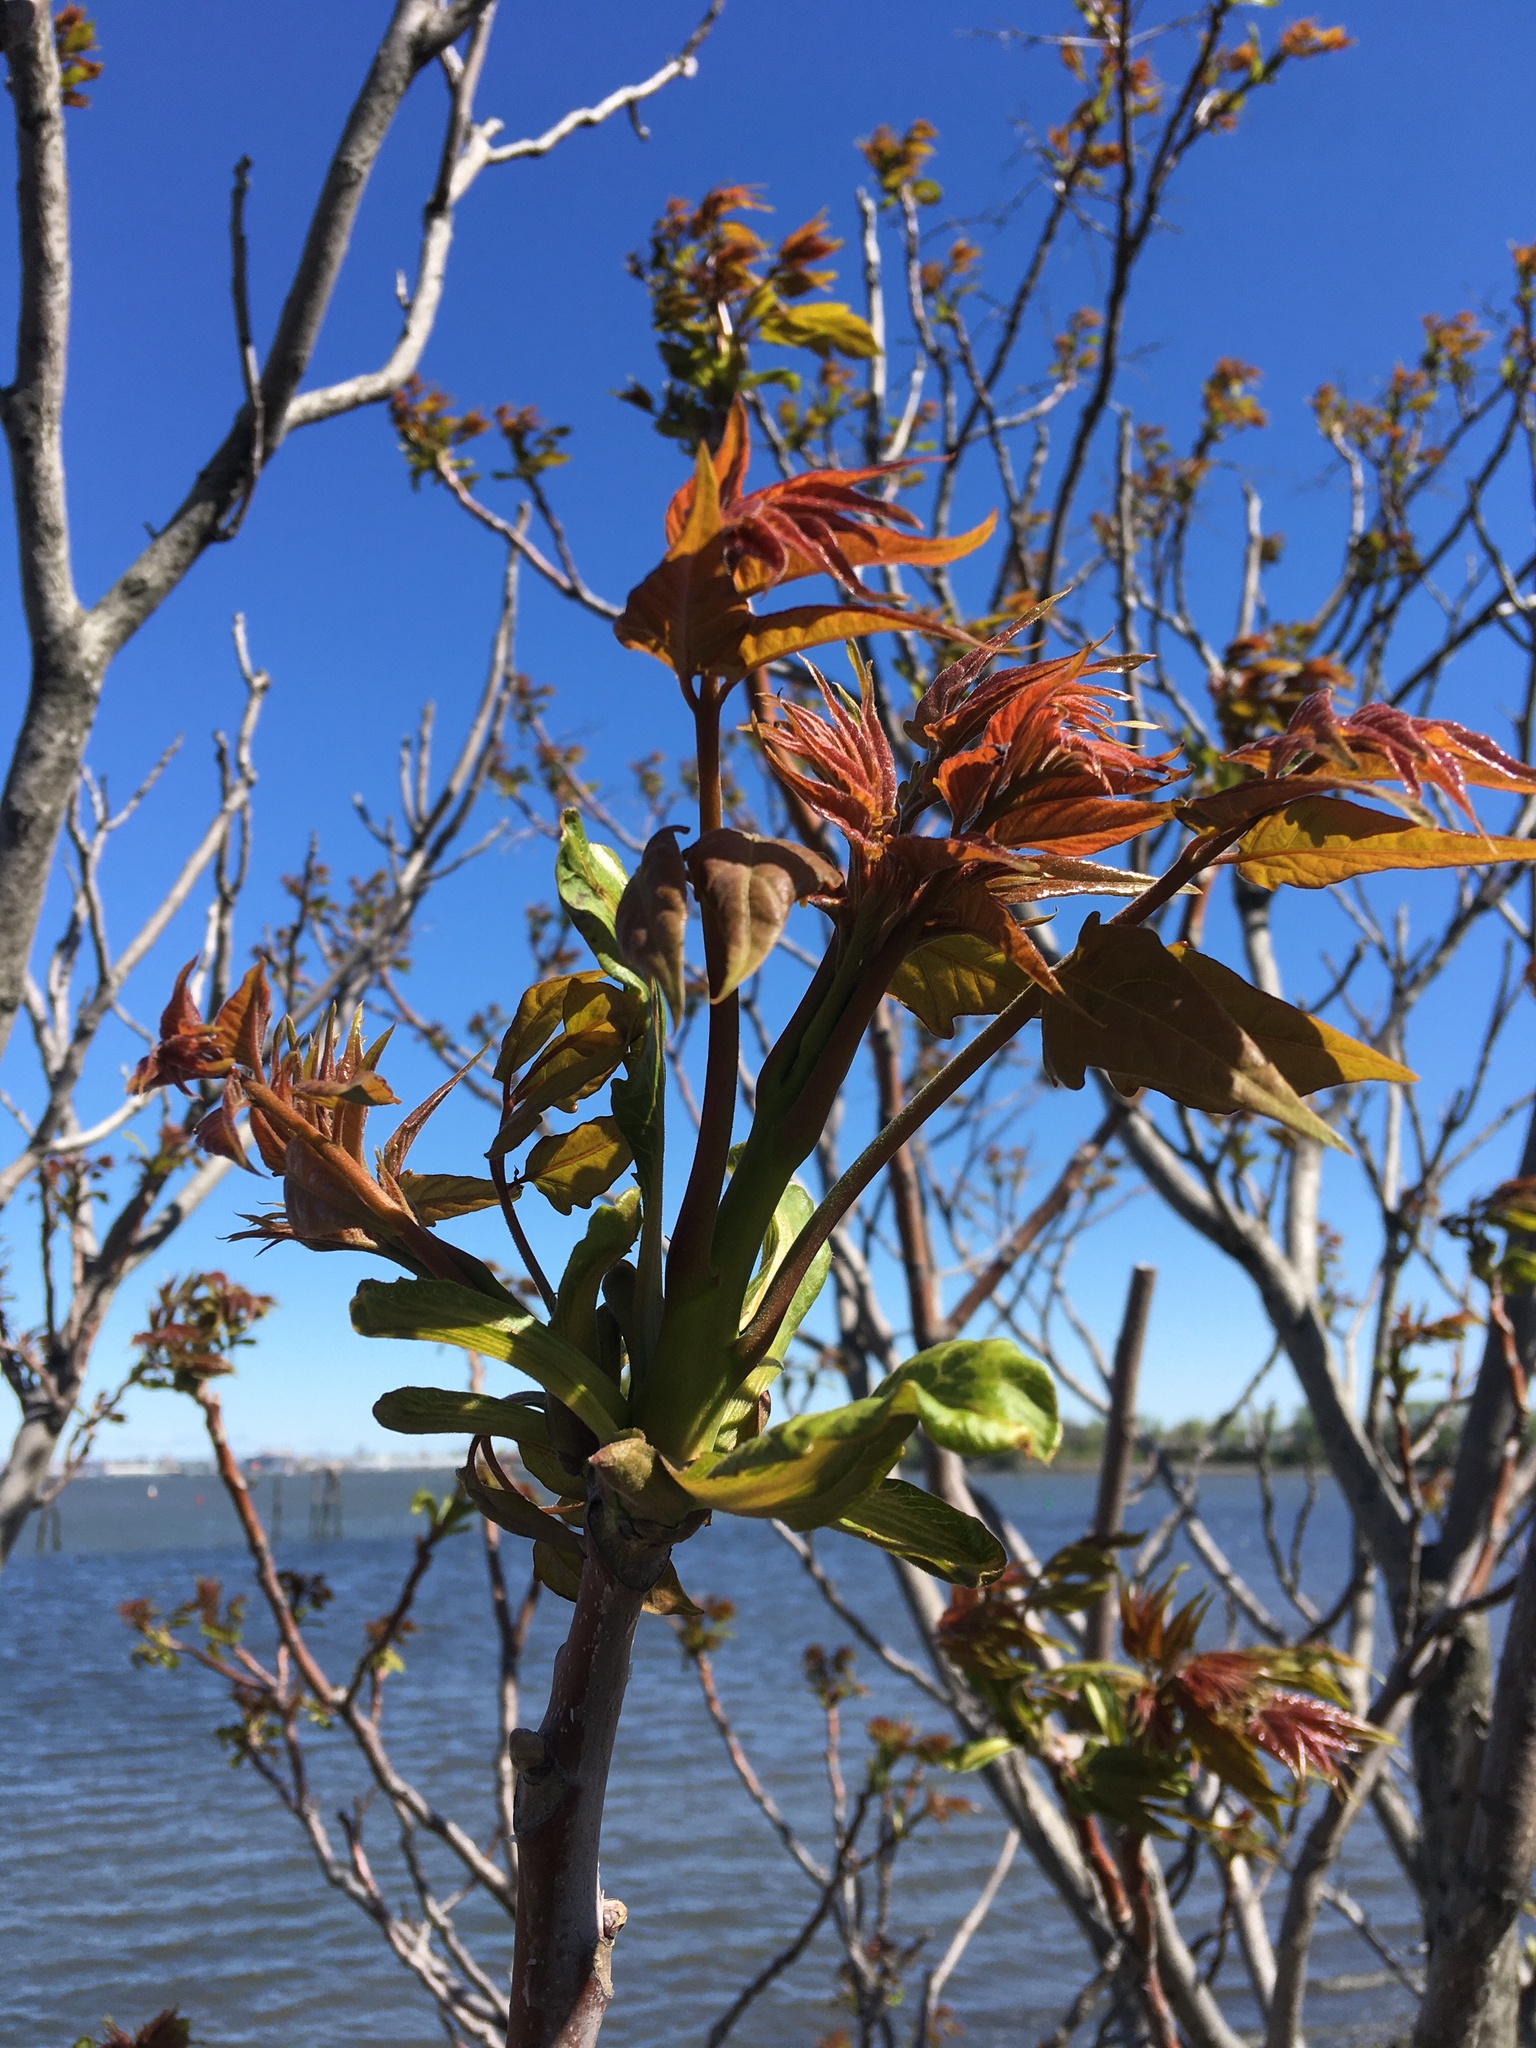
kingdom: Plantae
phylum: Tracheophyta
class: Magnoliopsida
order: Sapindales
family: Simaroubaceae
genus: Ailanthus
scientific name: Ailanthus altissima
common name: Tree-of-heaven
